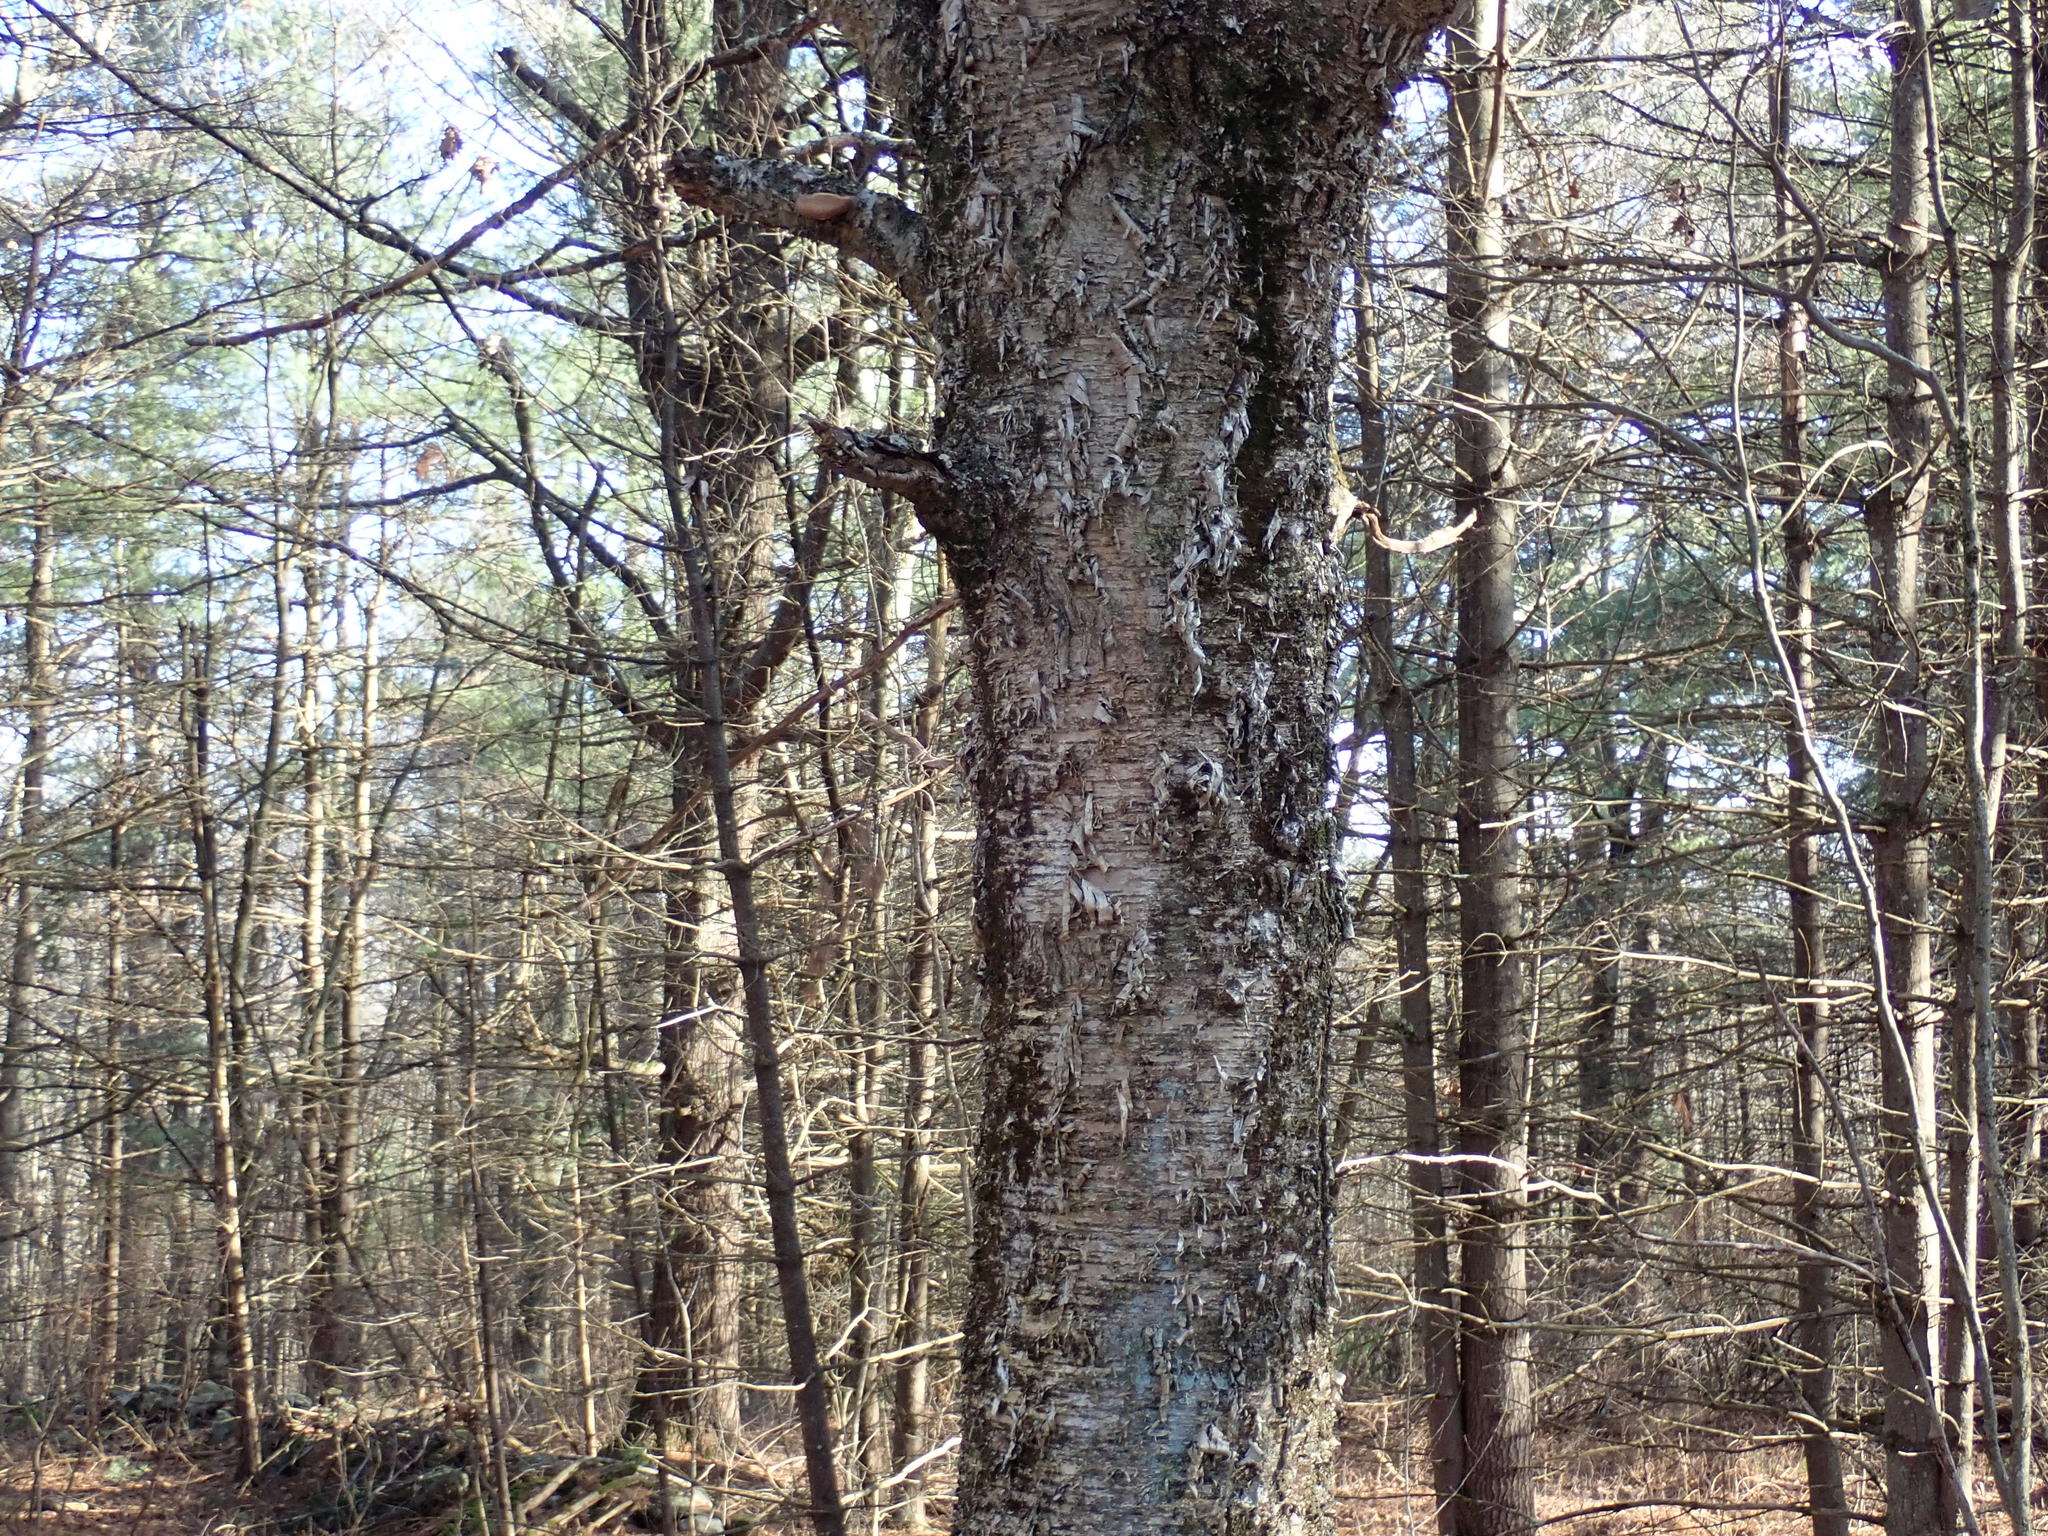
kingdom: Plantae
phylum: Tracheophyta
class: Magnoliopsida
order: Fagales
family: Betulaceae
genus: Betula
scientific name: Betula alleghaniensis
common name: Yellow birch
